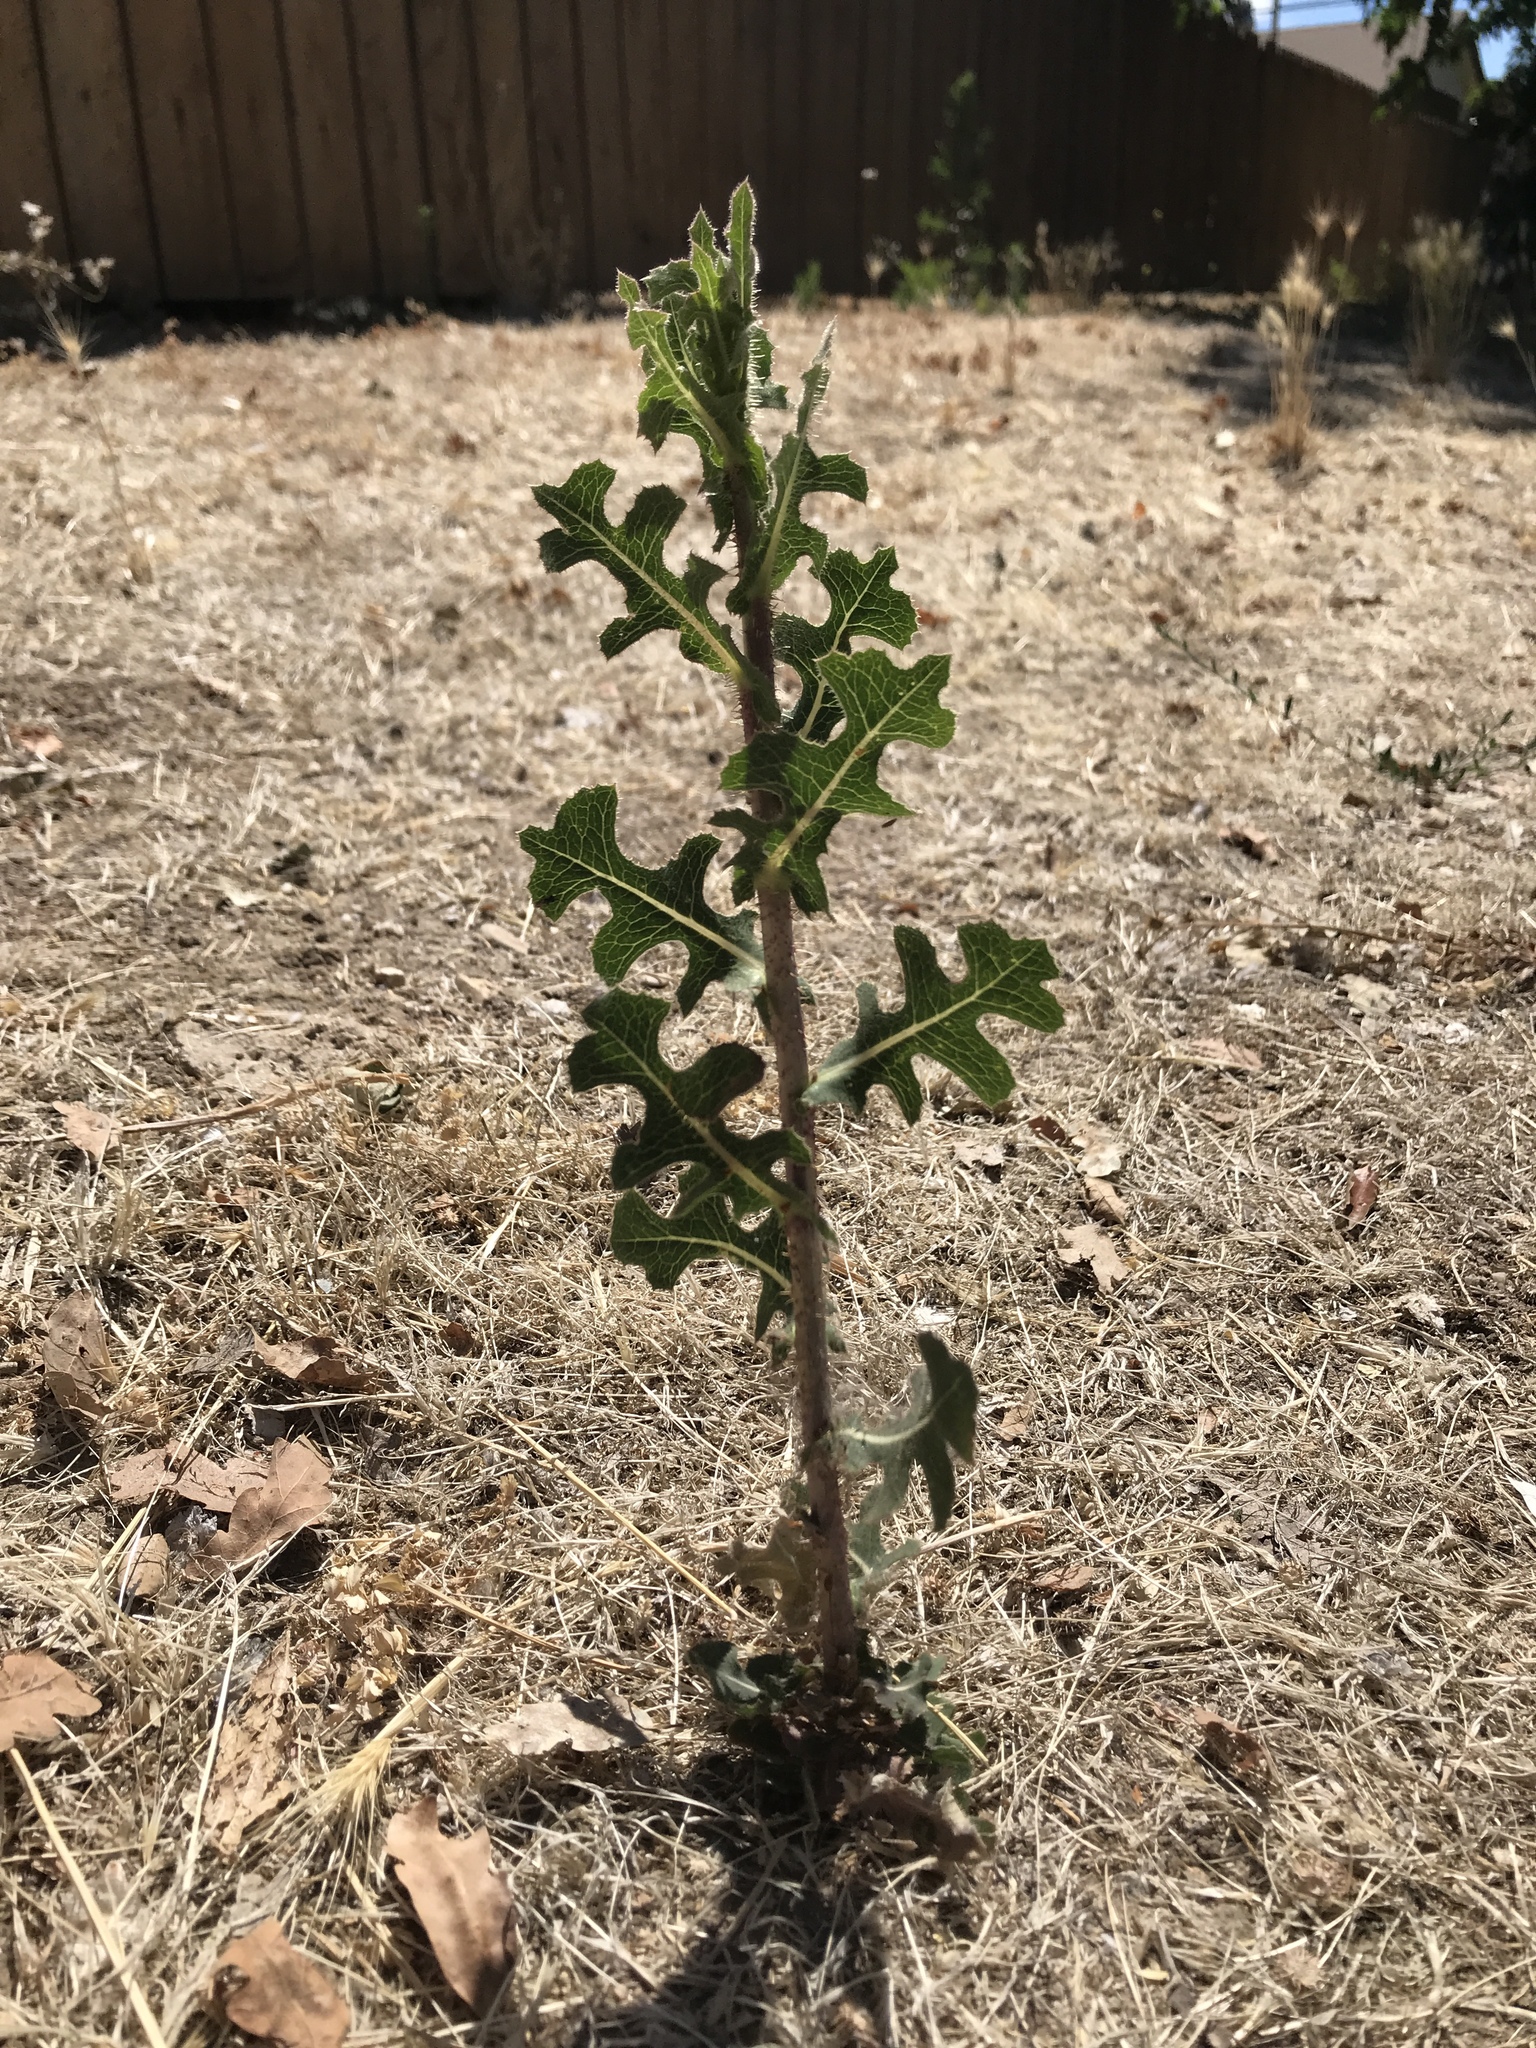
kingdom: Plantae
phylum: Tracheophyta
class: Magnoliopsida
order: Asterales
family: Asteraceae
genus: Lactuca
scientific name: Lactuca serriola
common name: Prickly lettuce
